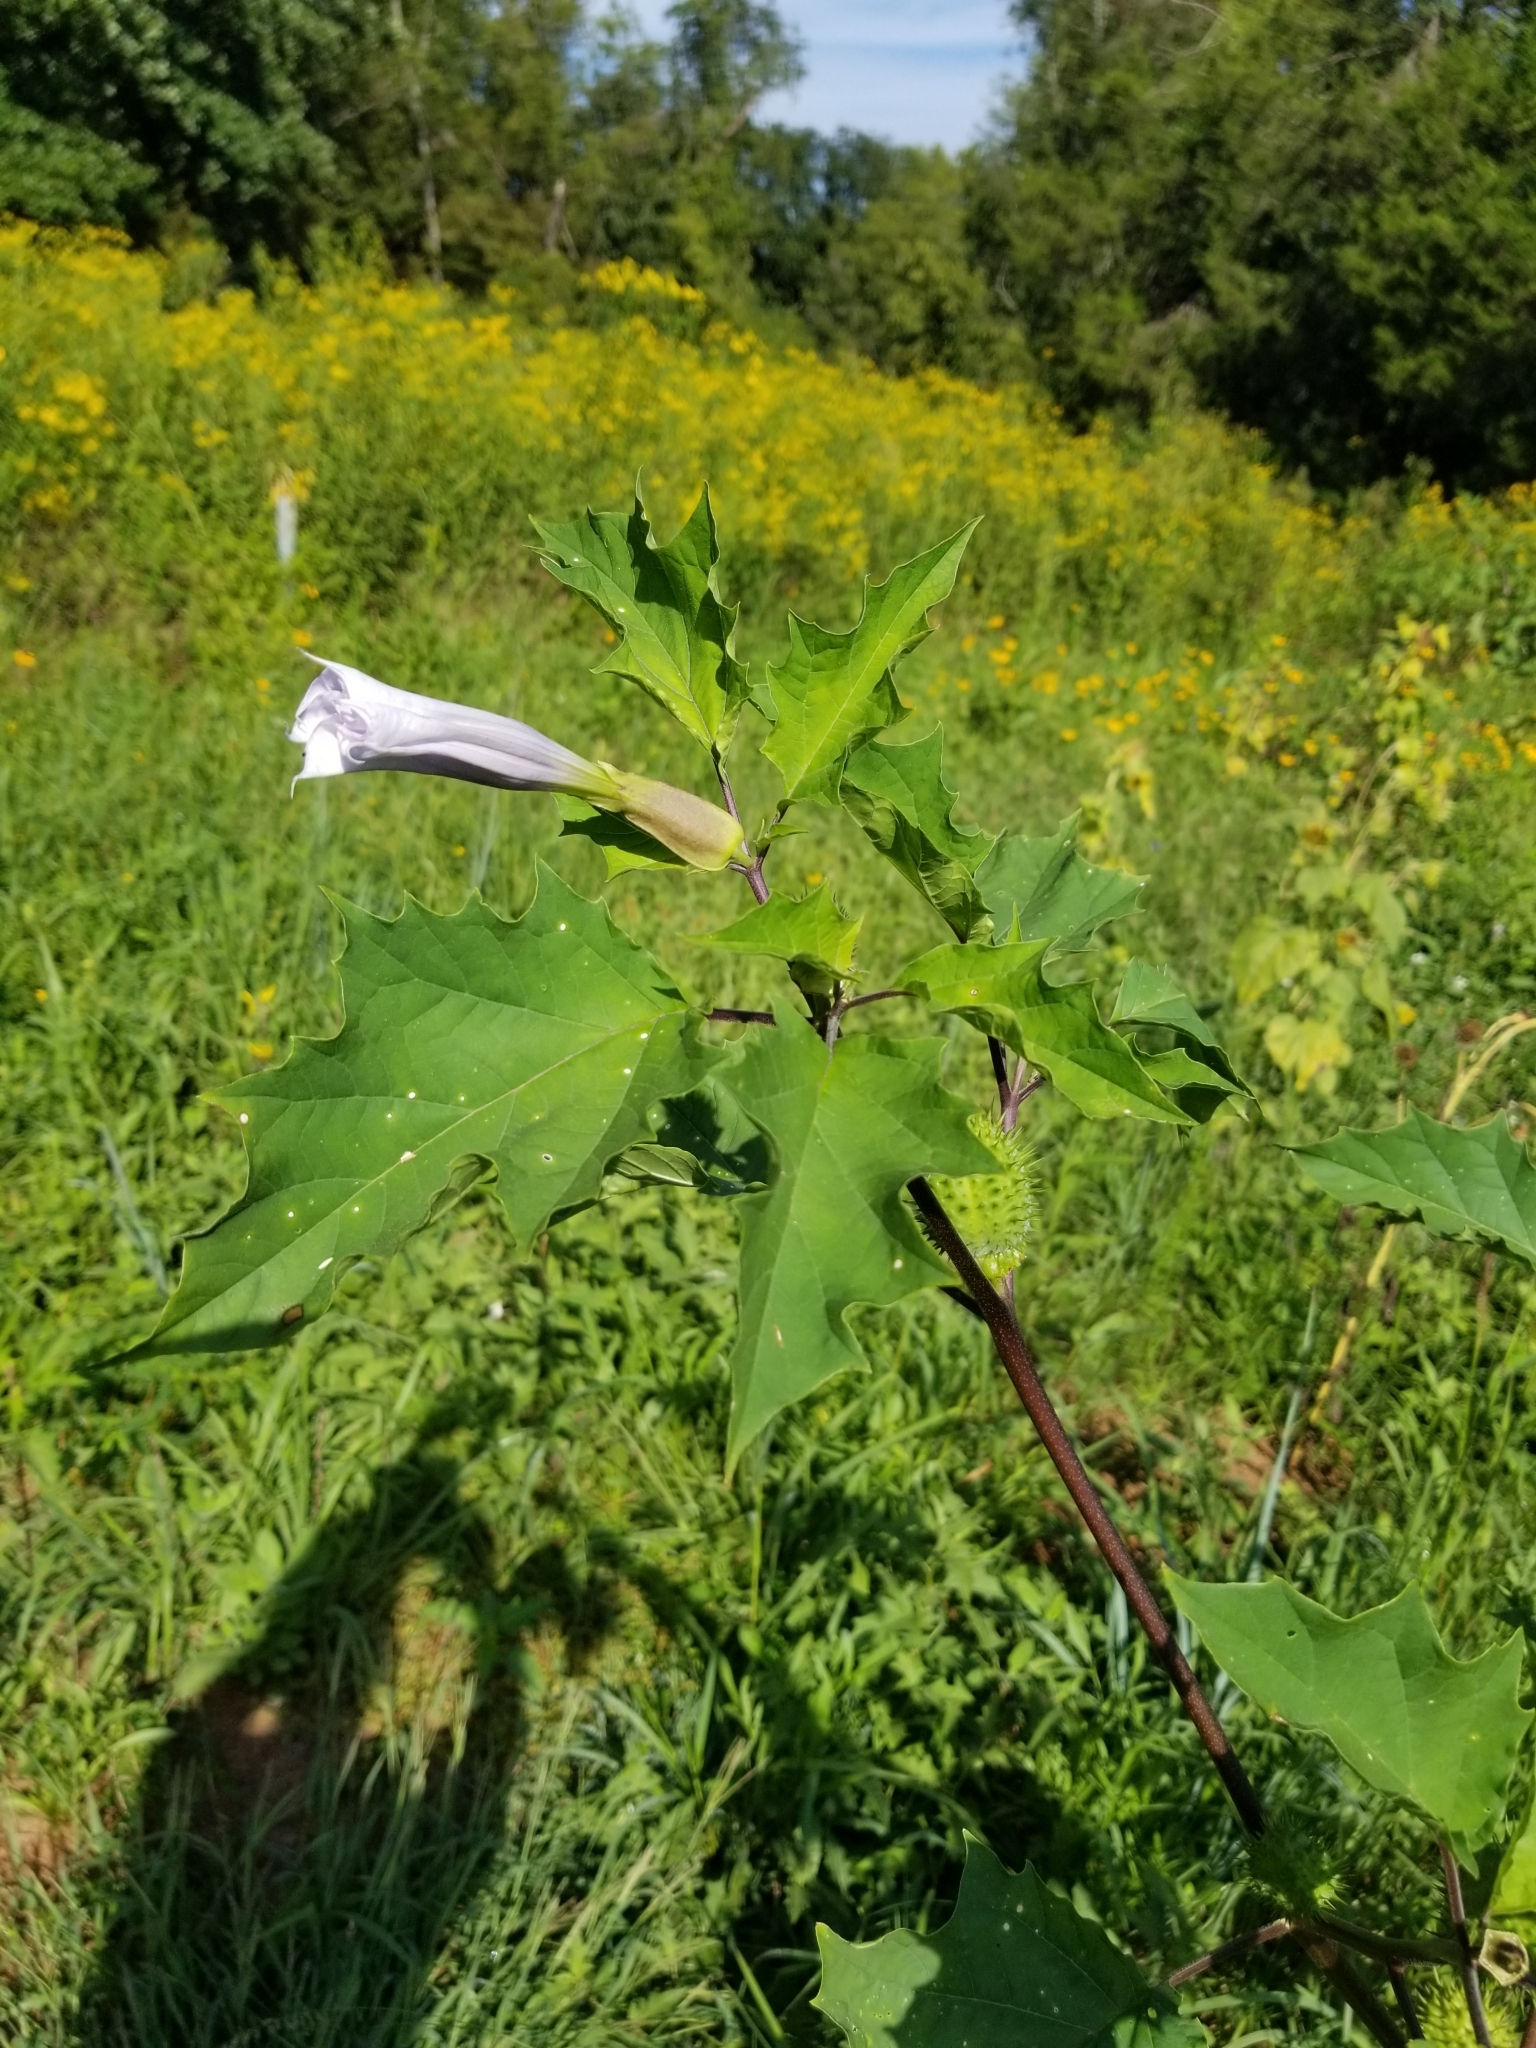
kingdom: Plantae
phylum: Tracheophyta
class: Magnoliopsida
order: Solanales
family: Solanaceae
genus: Datura
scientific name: Datura stramonium
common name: Thorn-apple
